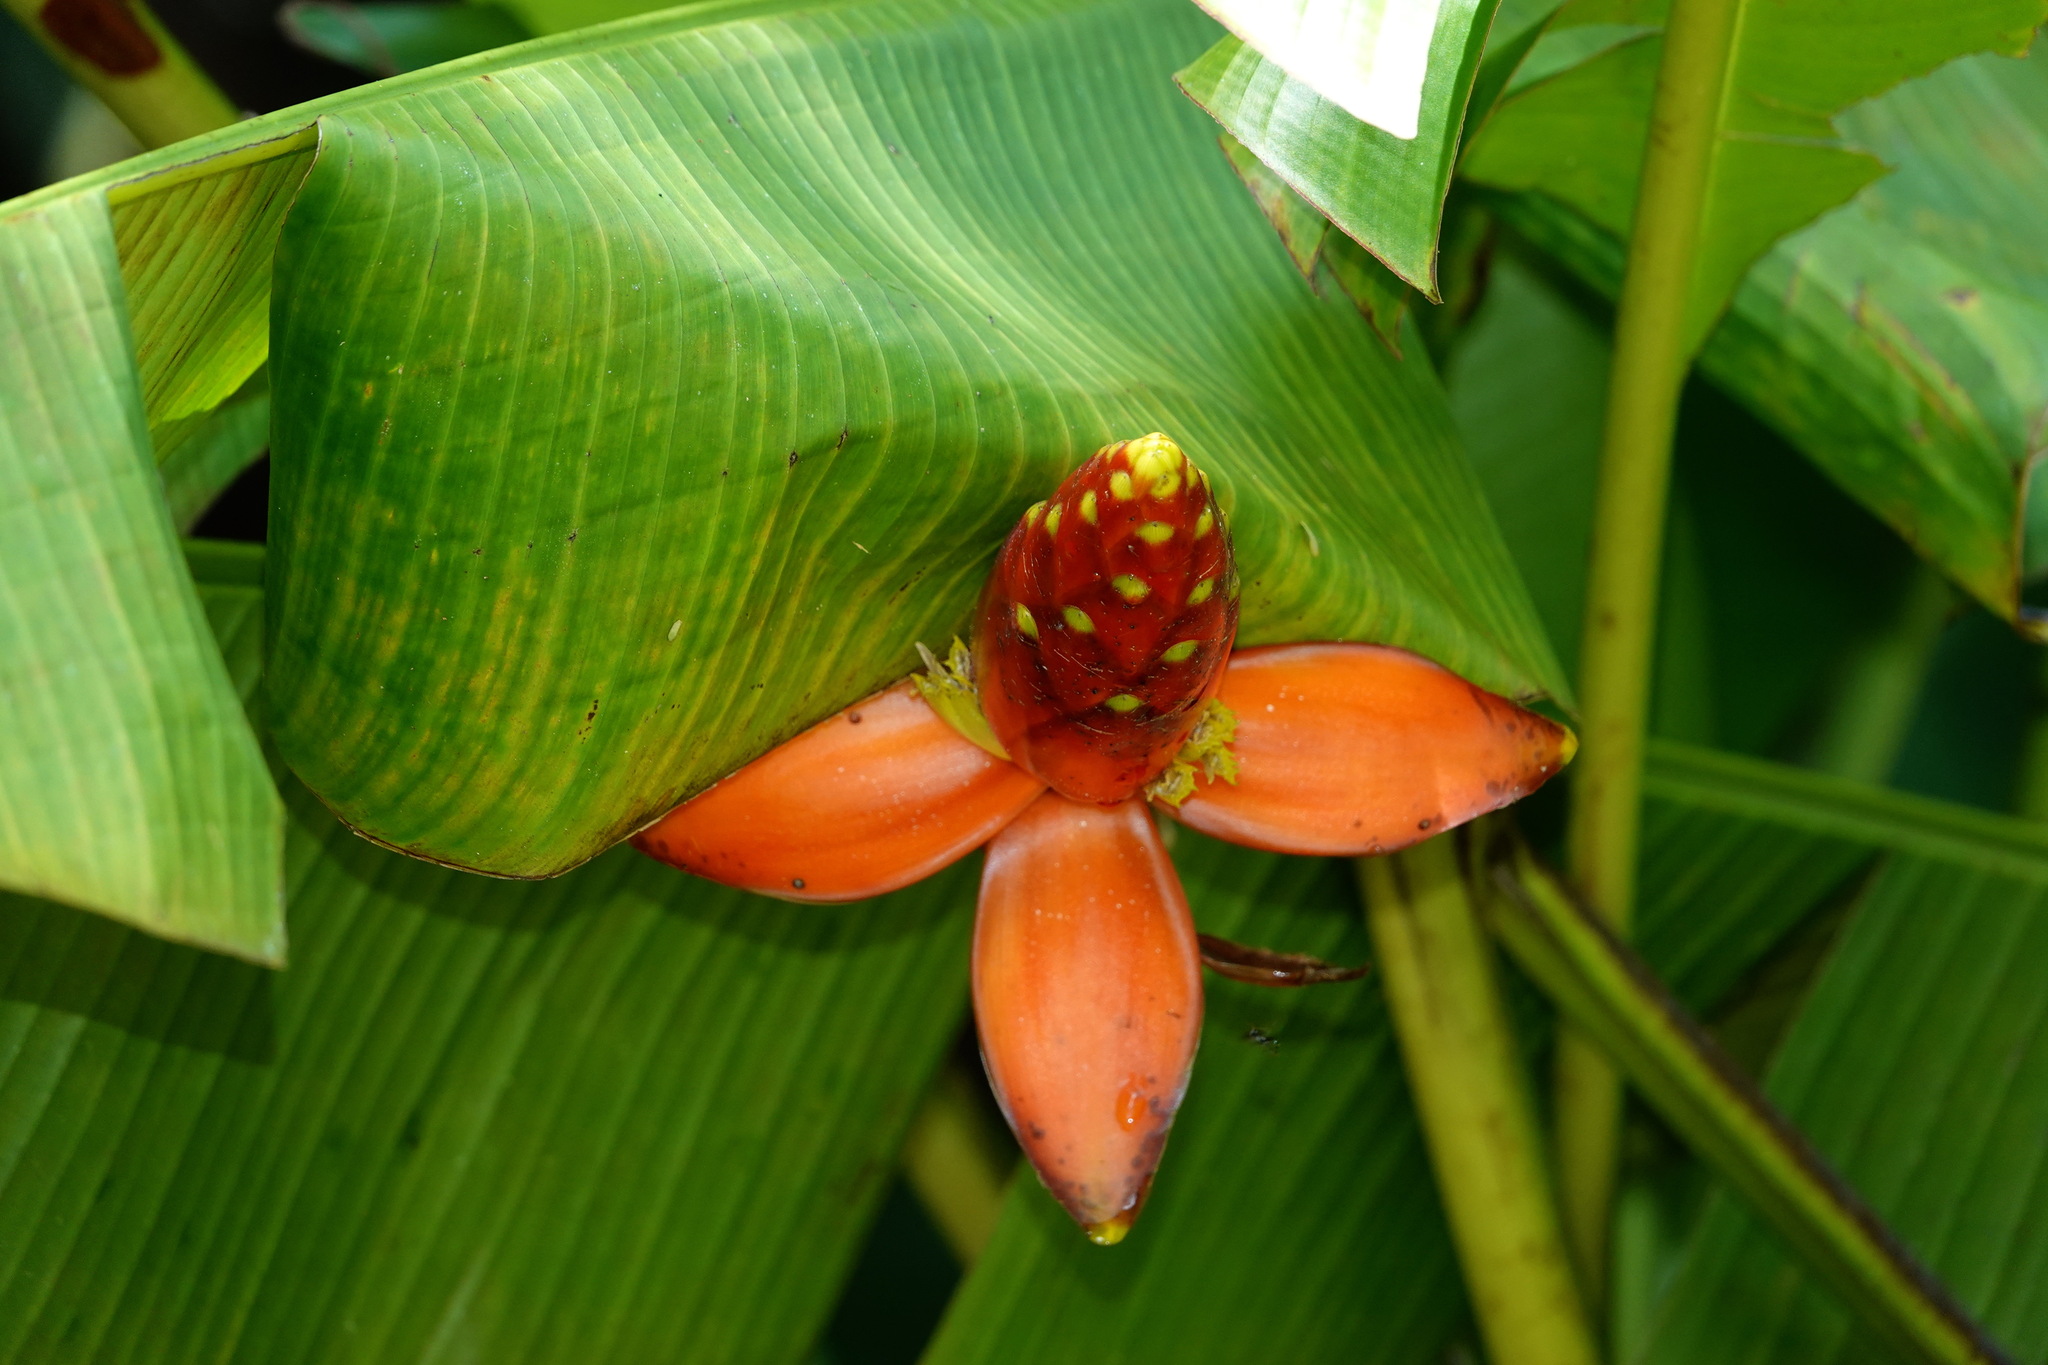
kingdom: Plantae
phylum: Tracheophyta
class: Liliopsida
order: Zingiberales
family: Musaceae
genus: Musa
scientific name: Musa beccarii
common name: Pisang tajak
